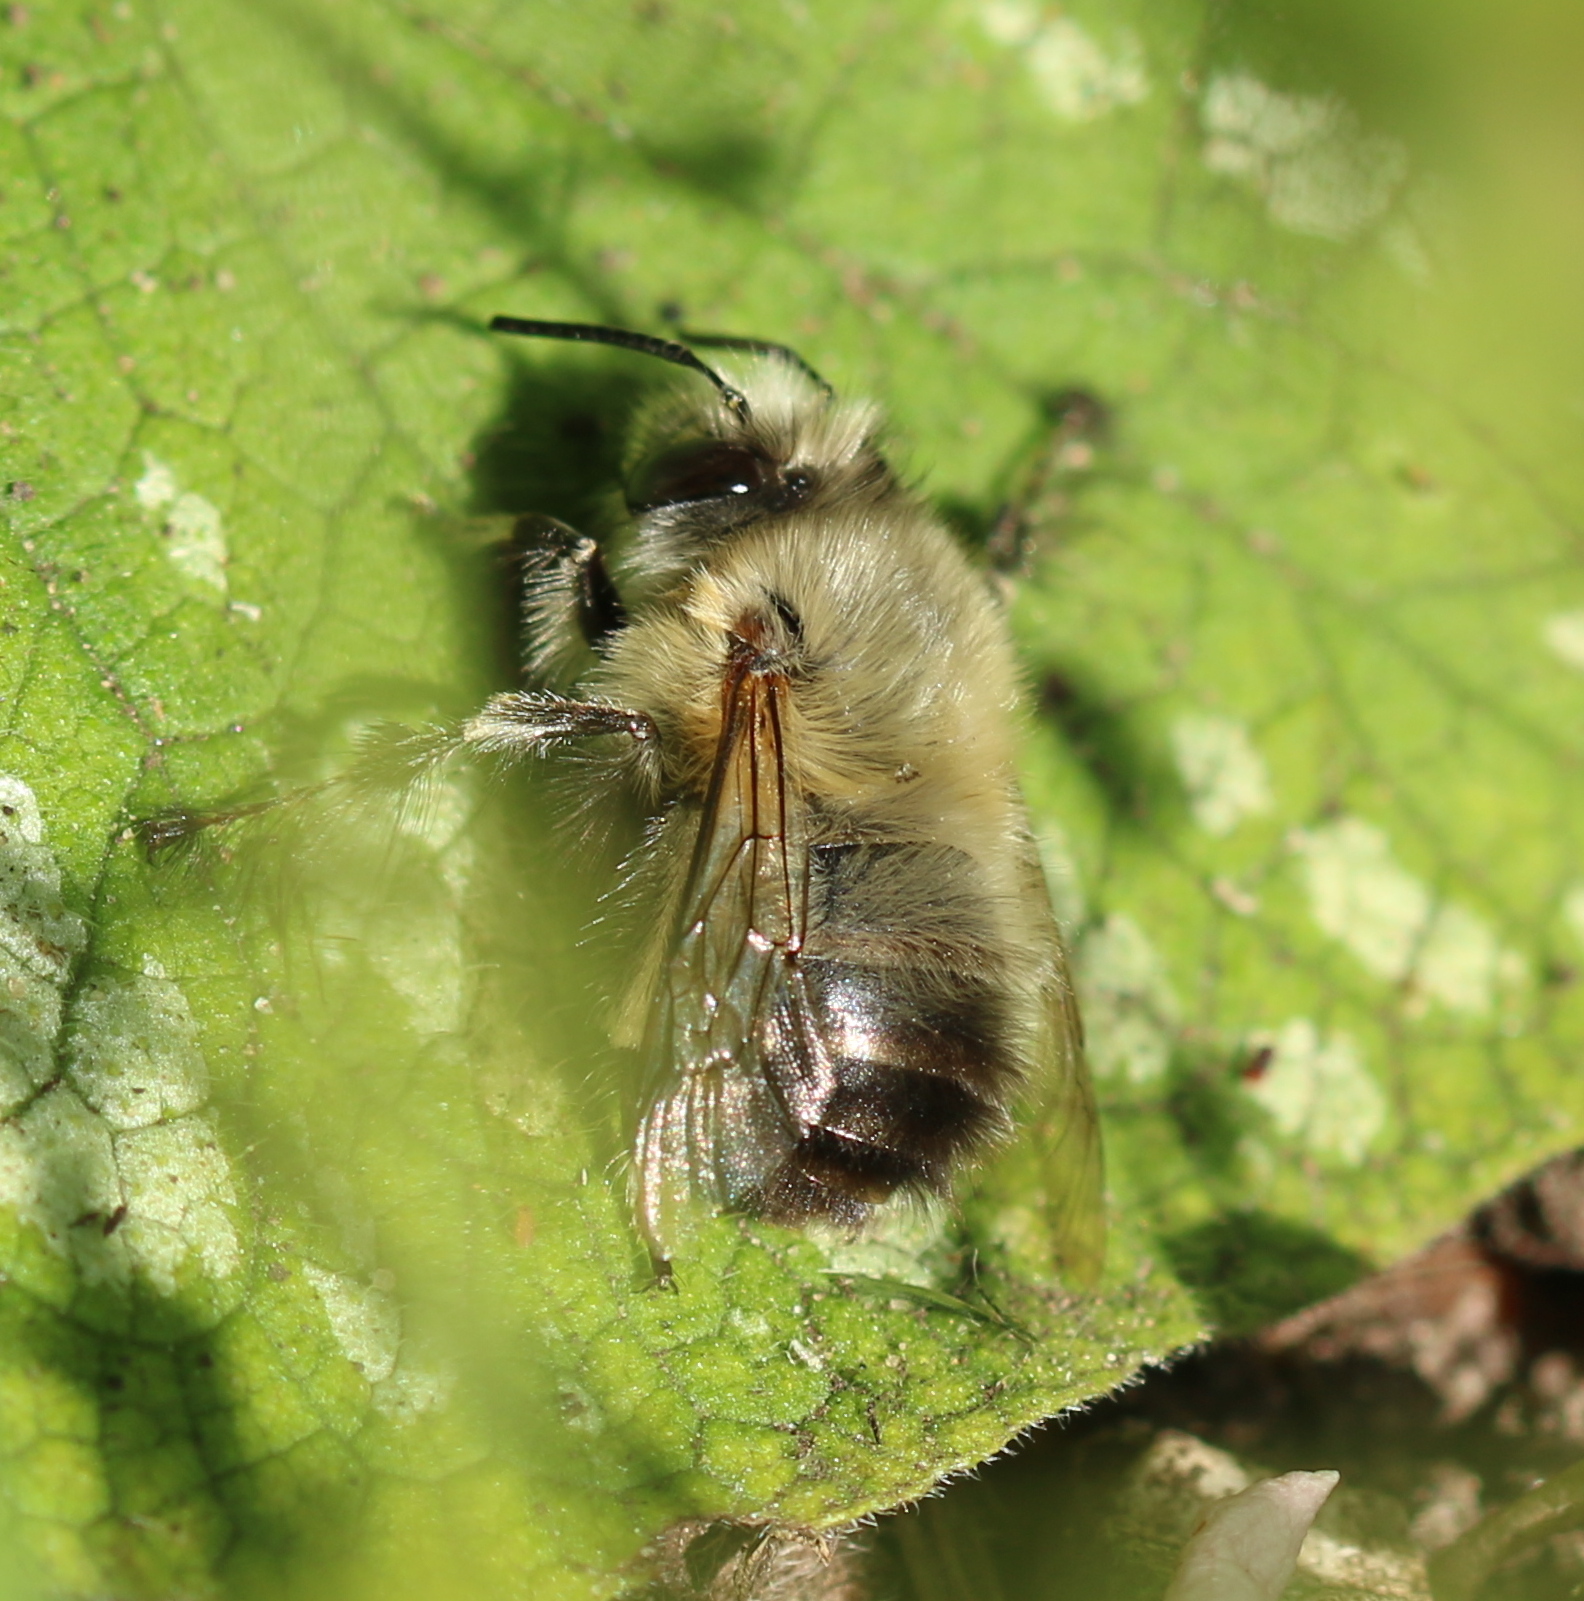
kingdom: Animalia
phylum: Arthropoda
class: Insecta
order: Hymenoptera
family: Apidae
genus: Anthophora
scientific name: Anthophora plumipes
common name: Hairy-footed flower bee
